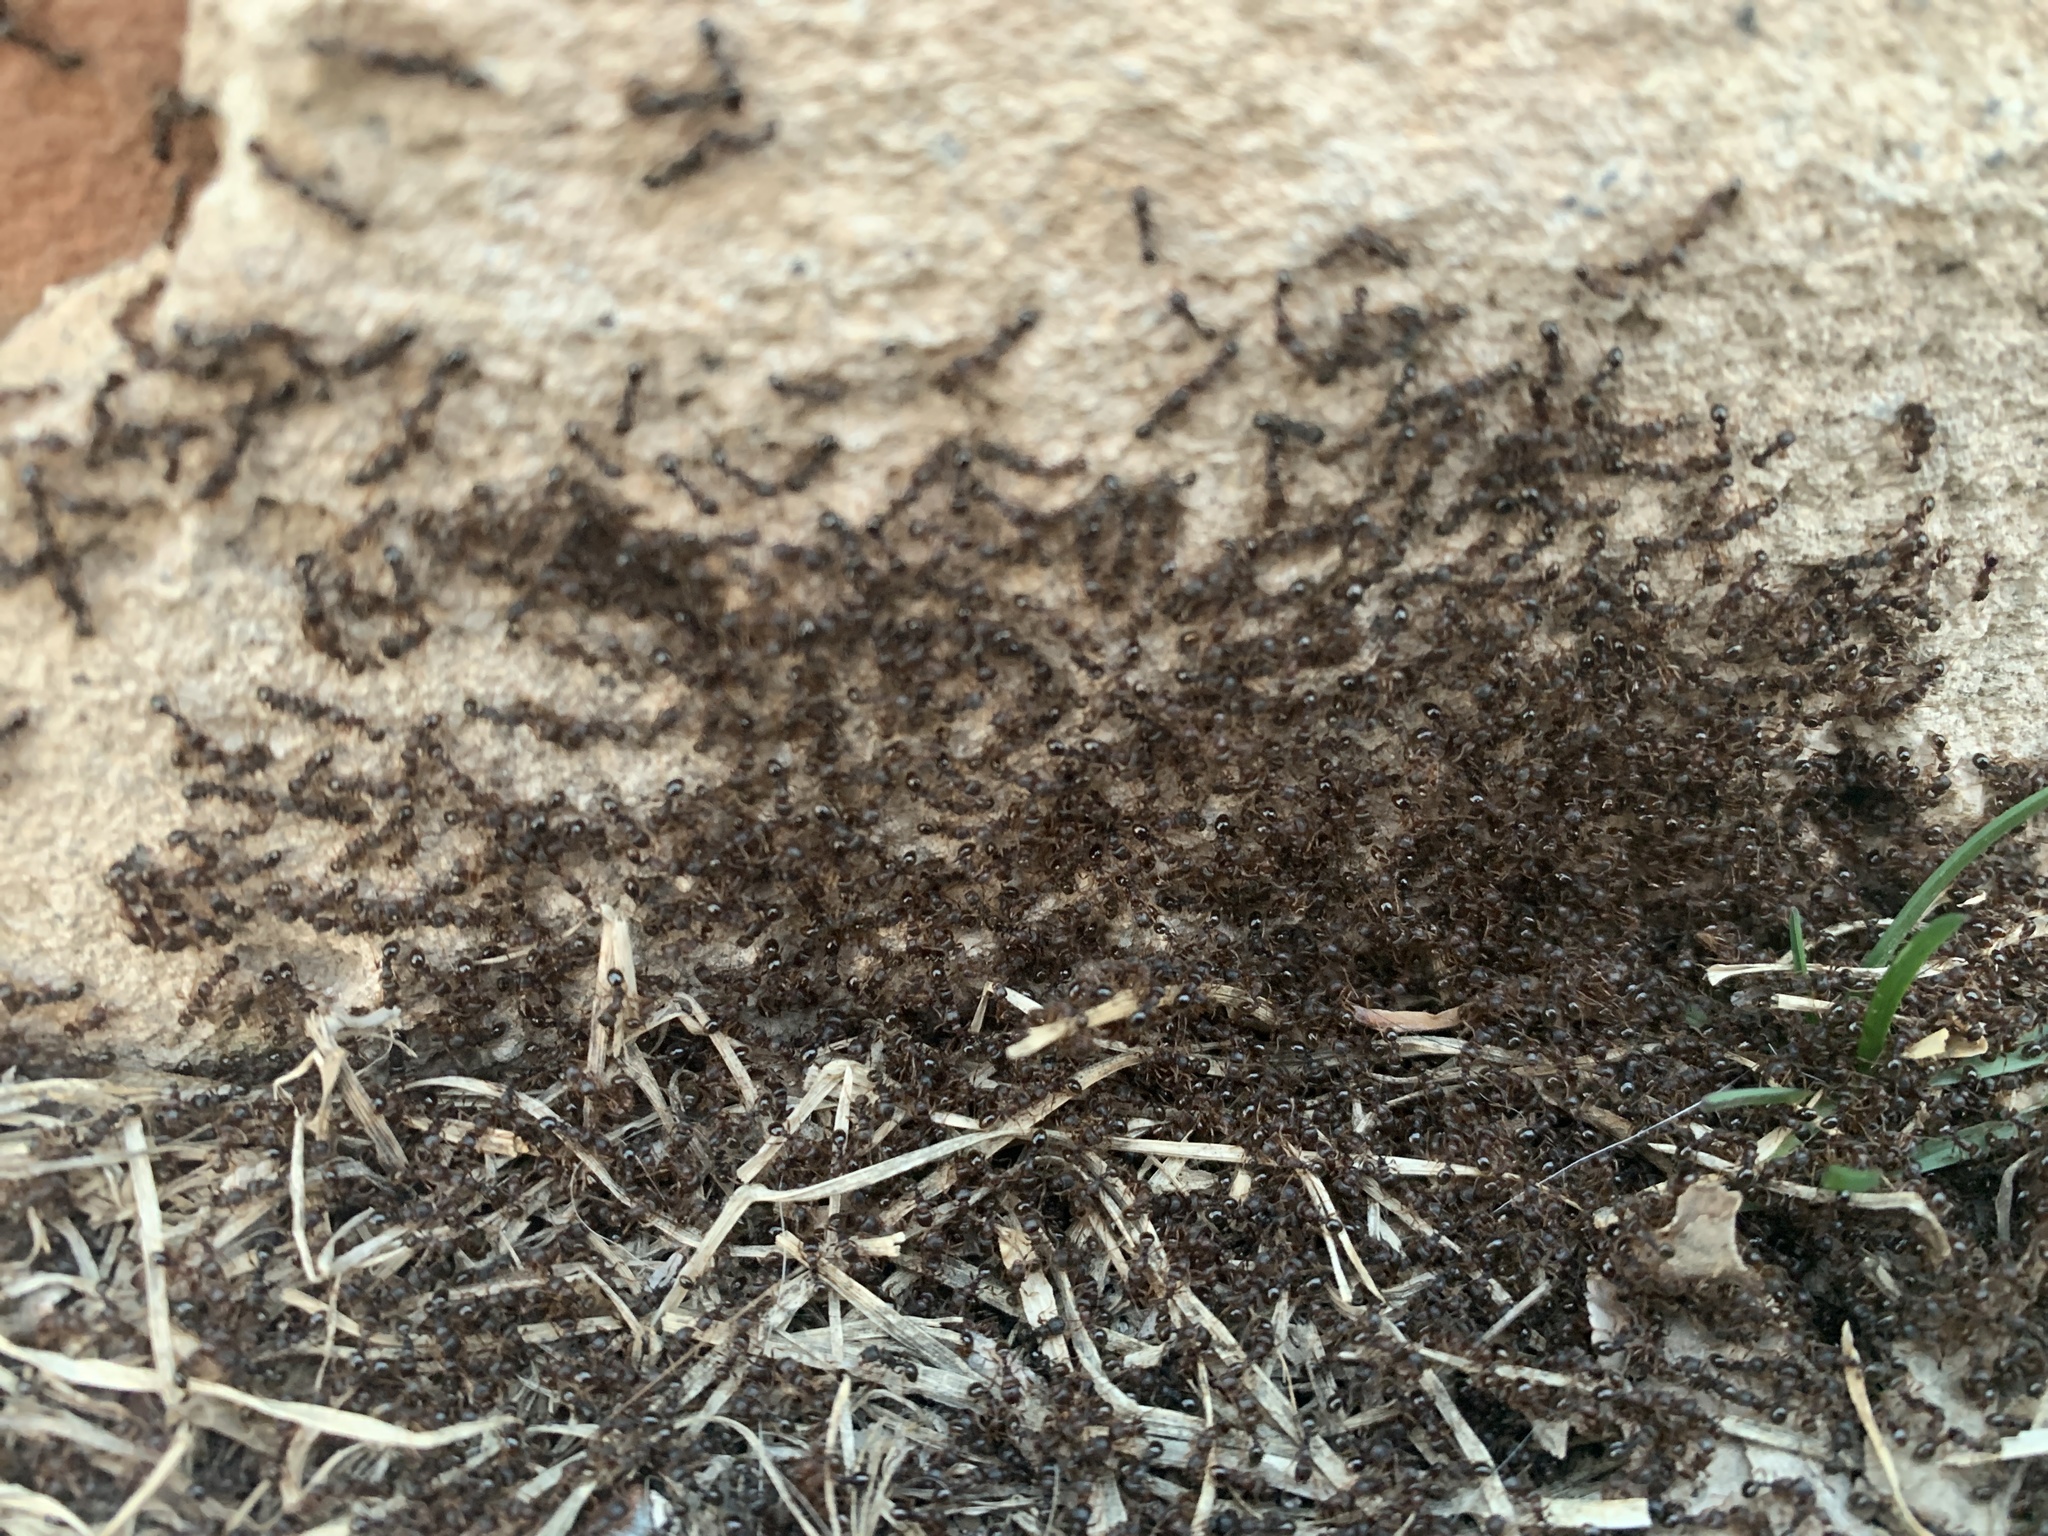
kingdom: Animalia
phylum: Arthropoda
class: Insecta
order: Hymenoptera
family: Formicidae
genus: Tetramorium
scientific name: Tetramorium immigrans
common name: Pavement ant
